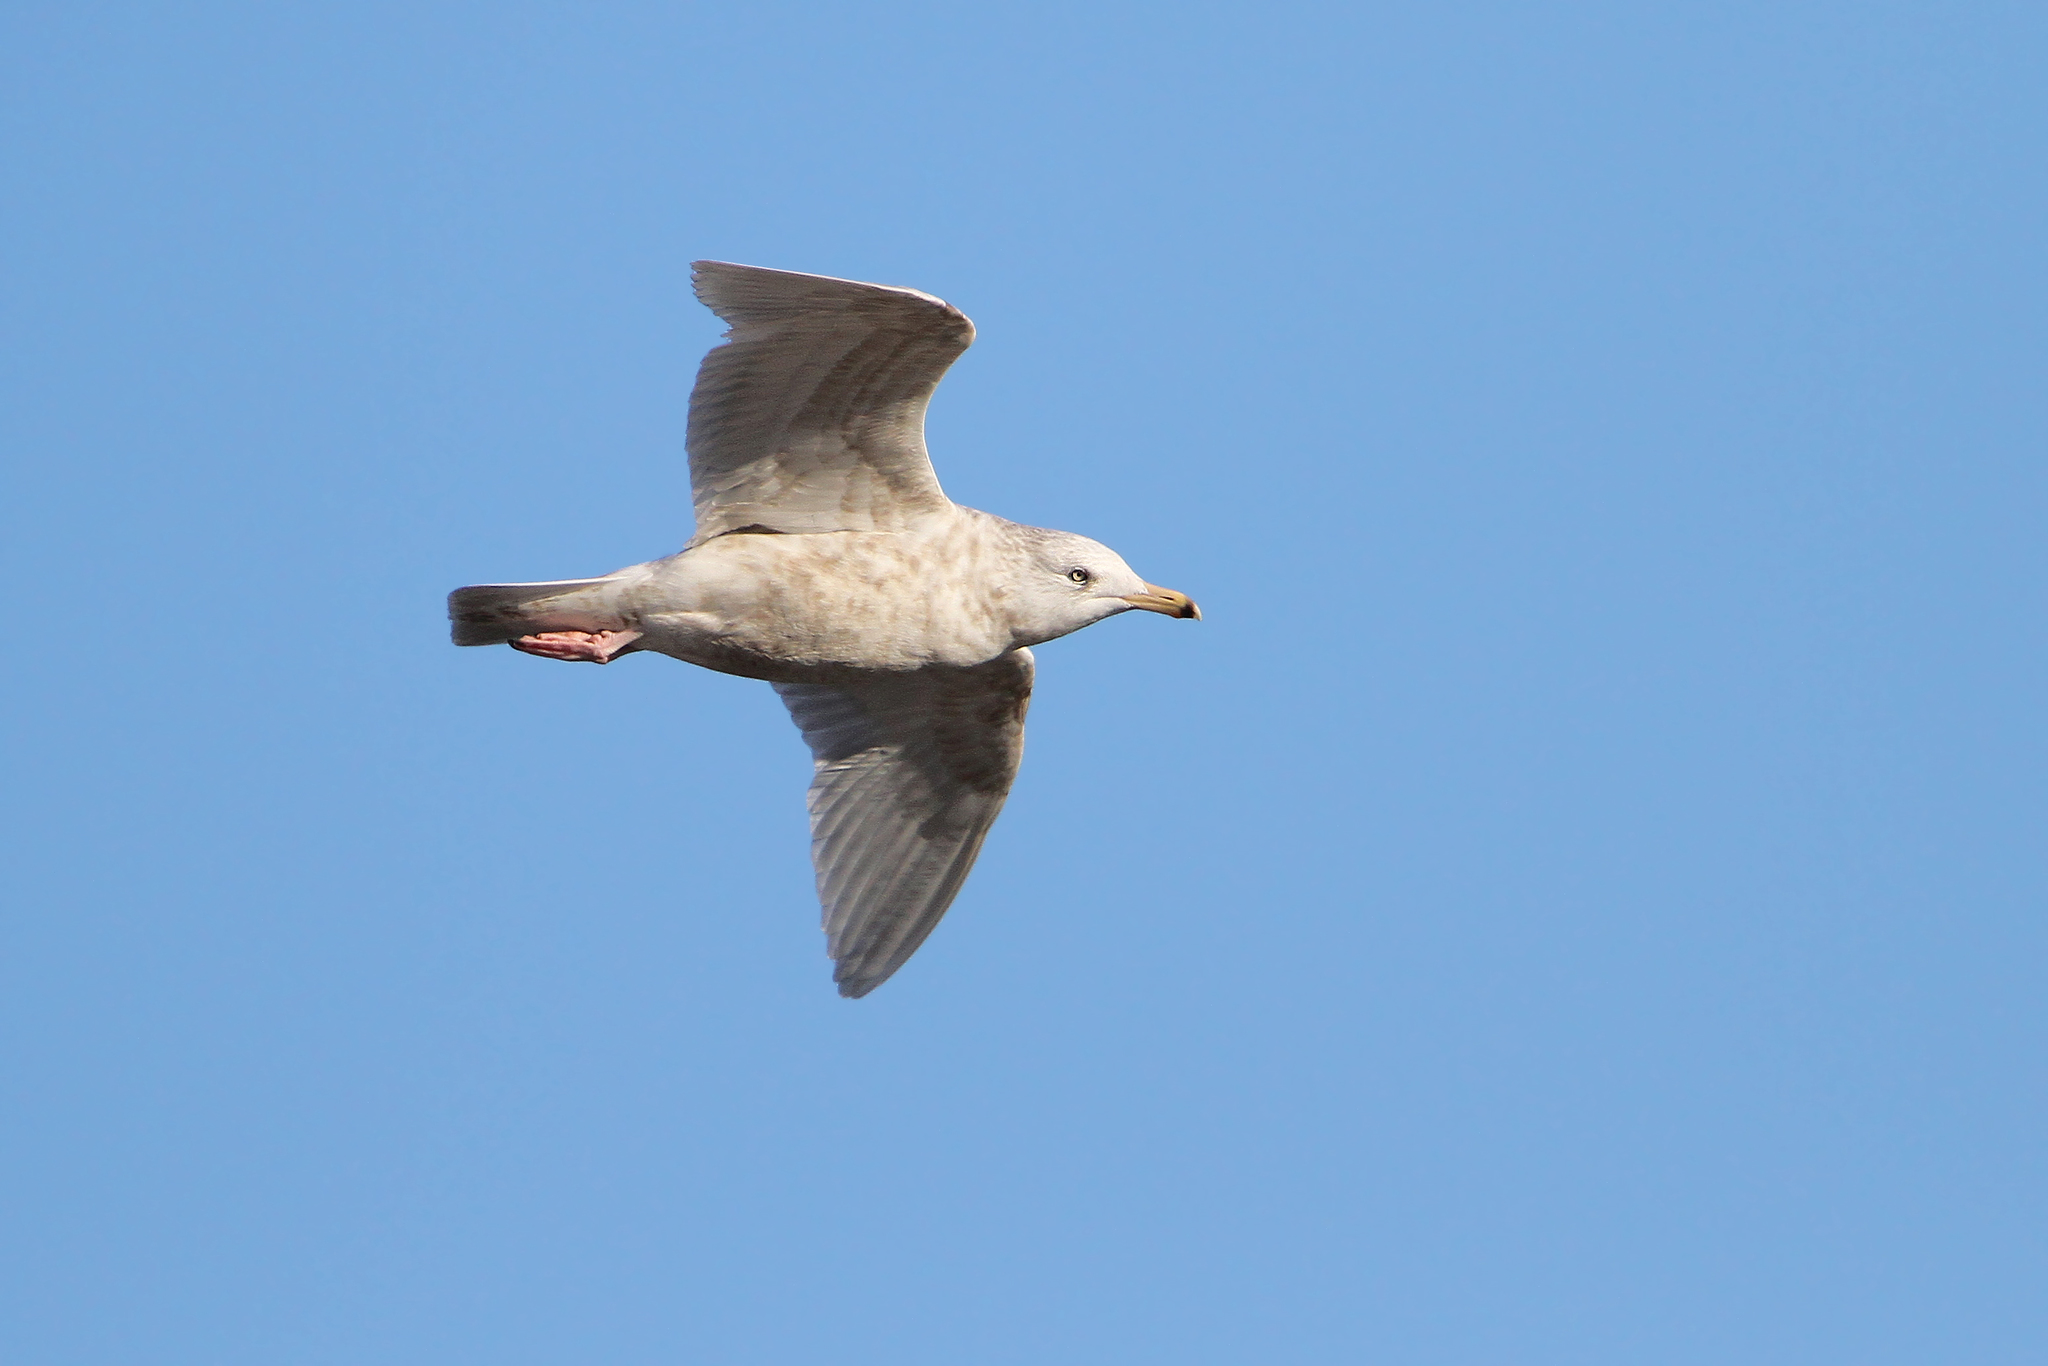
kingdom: Animalia
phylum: Chordata
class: Aves
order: Charadriiformes
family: Laridae
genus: Larus
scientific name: Larus hyperboreus
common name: Glaucous gull
